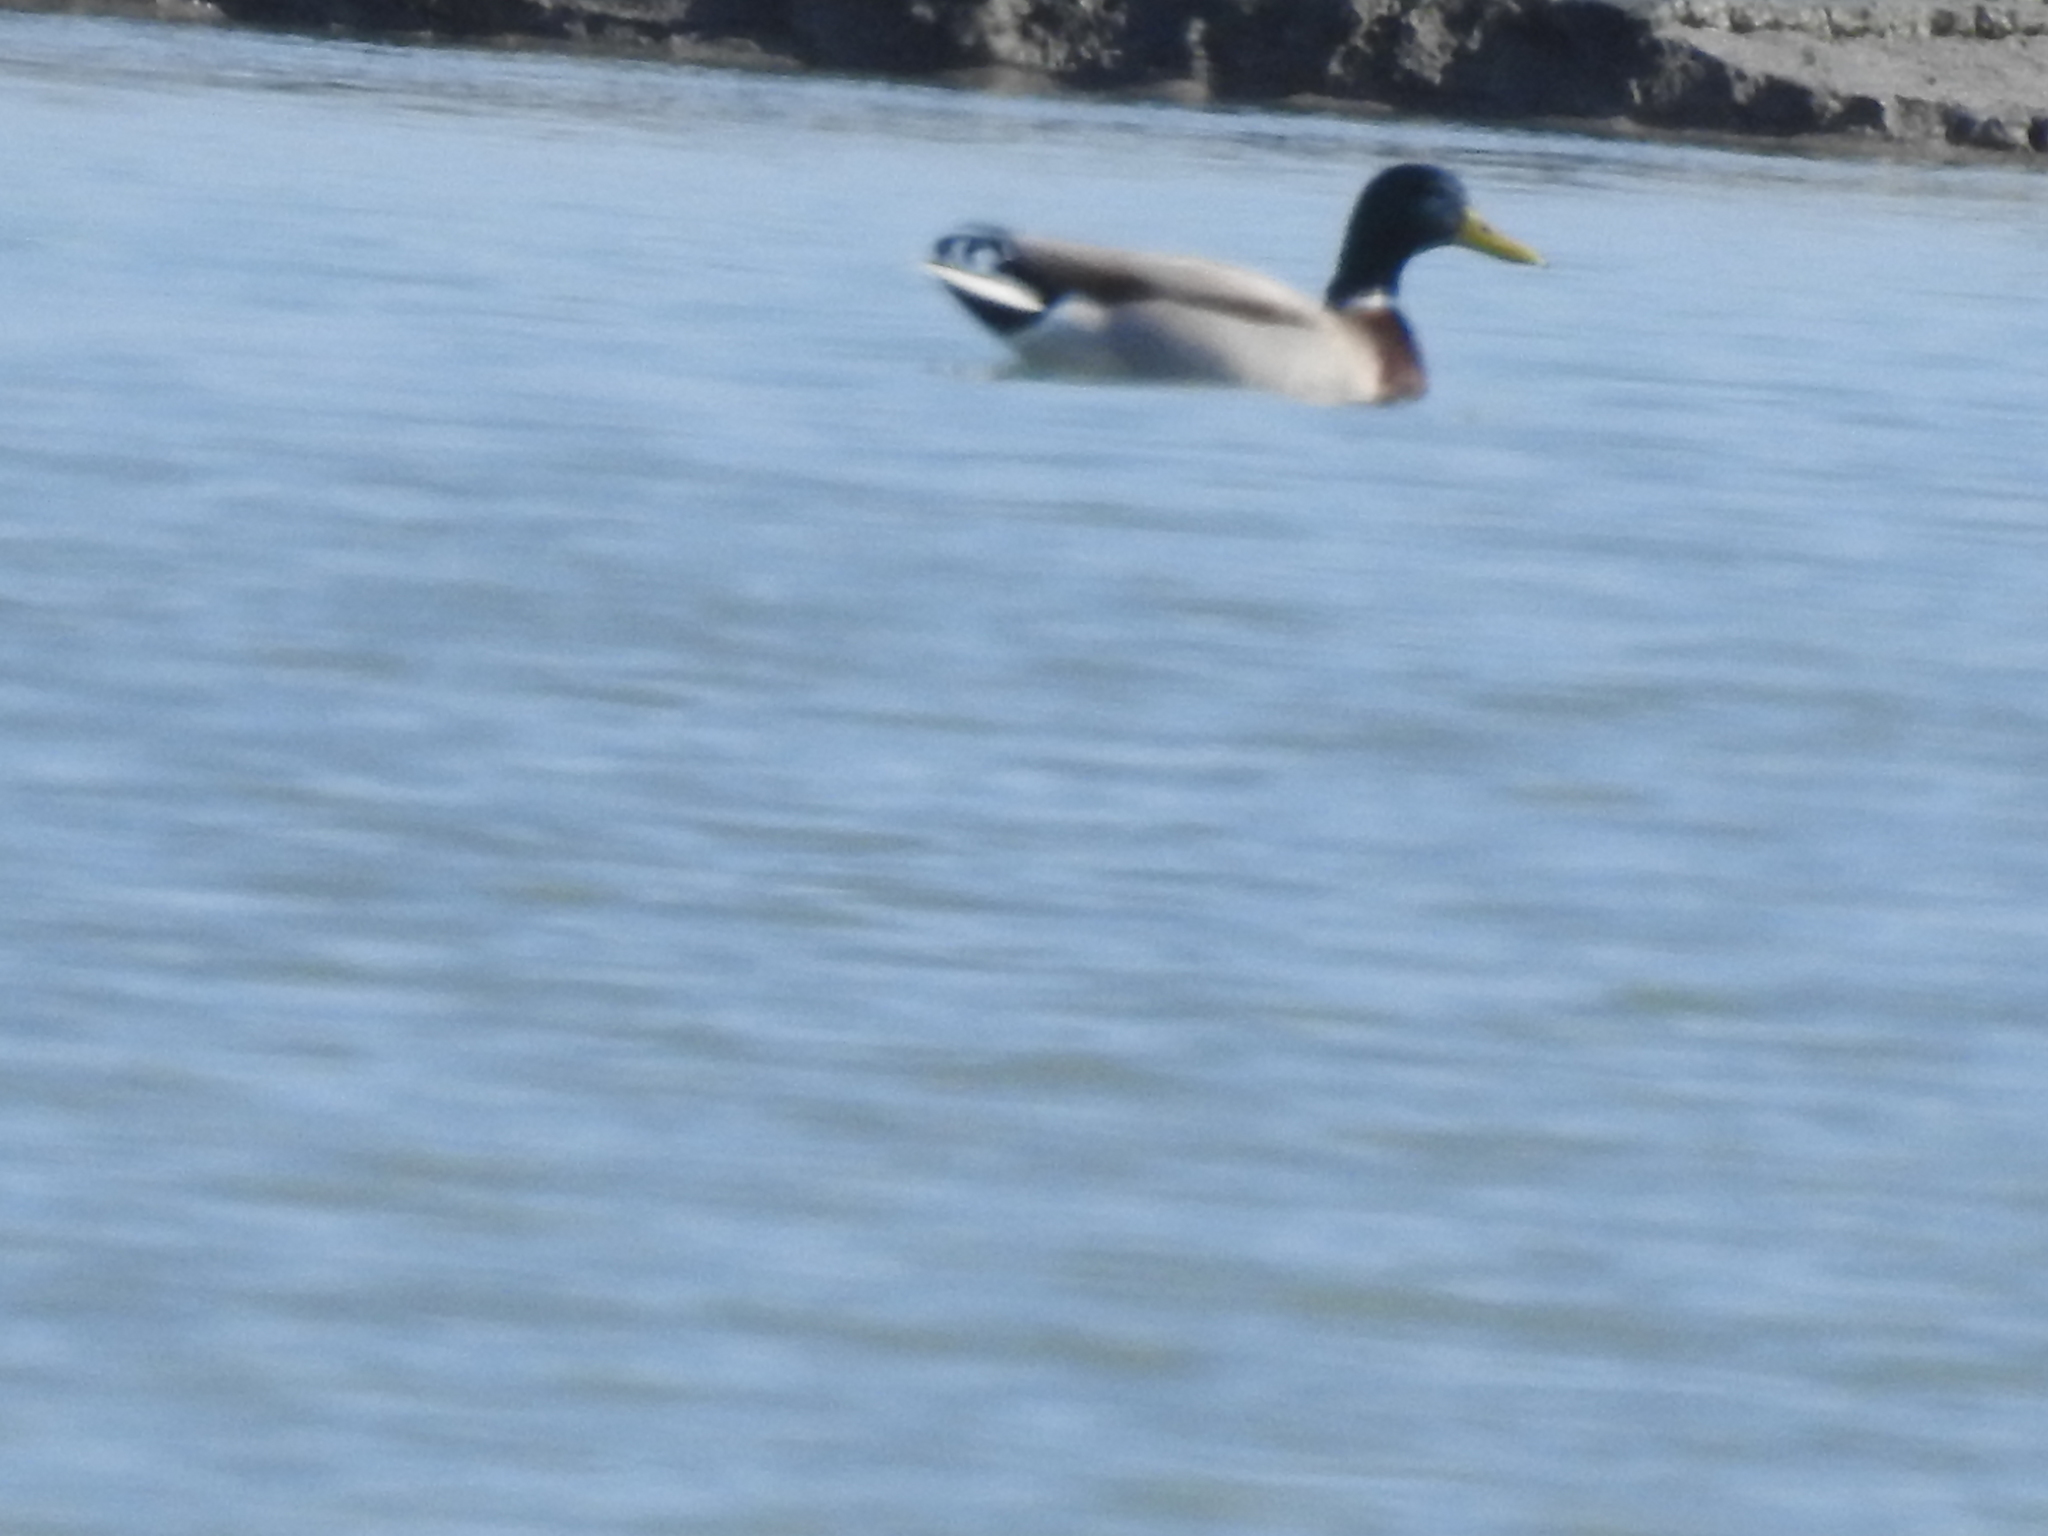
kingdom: Animalia
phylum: Chordata
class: Aves
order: Anseriformes
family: Anatidae
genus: Anas
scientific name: Anas platyrhynchos
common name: Mallard
